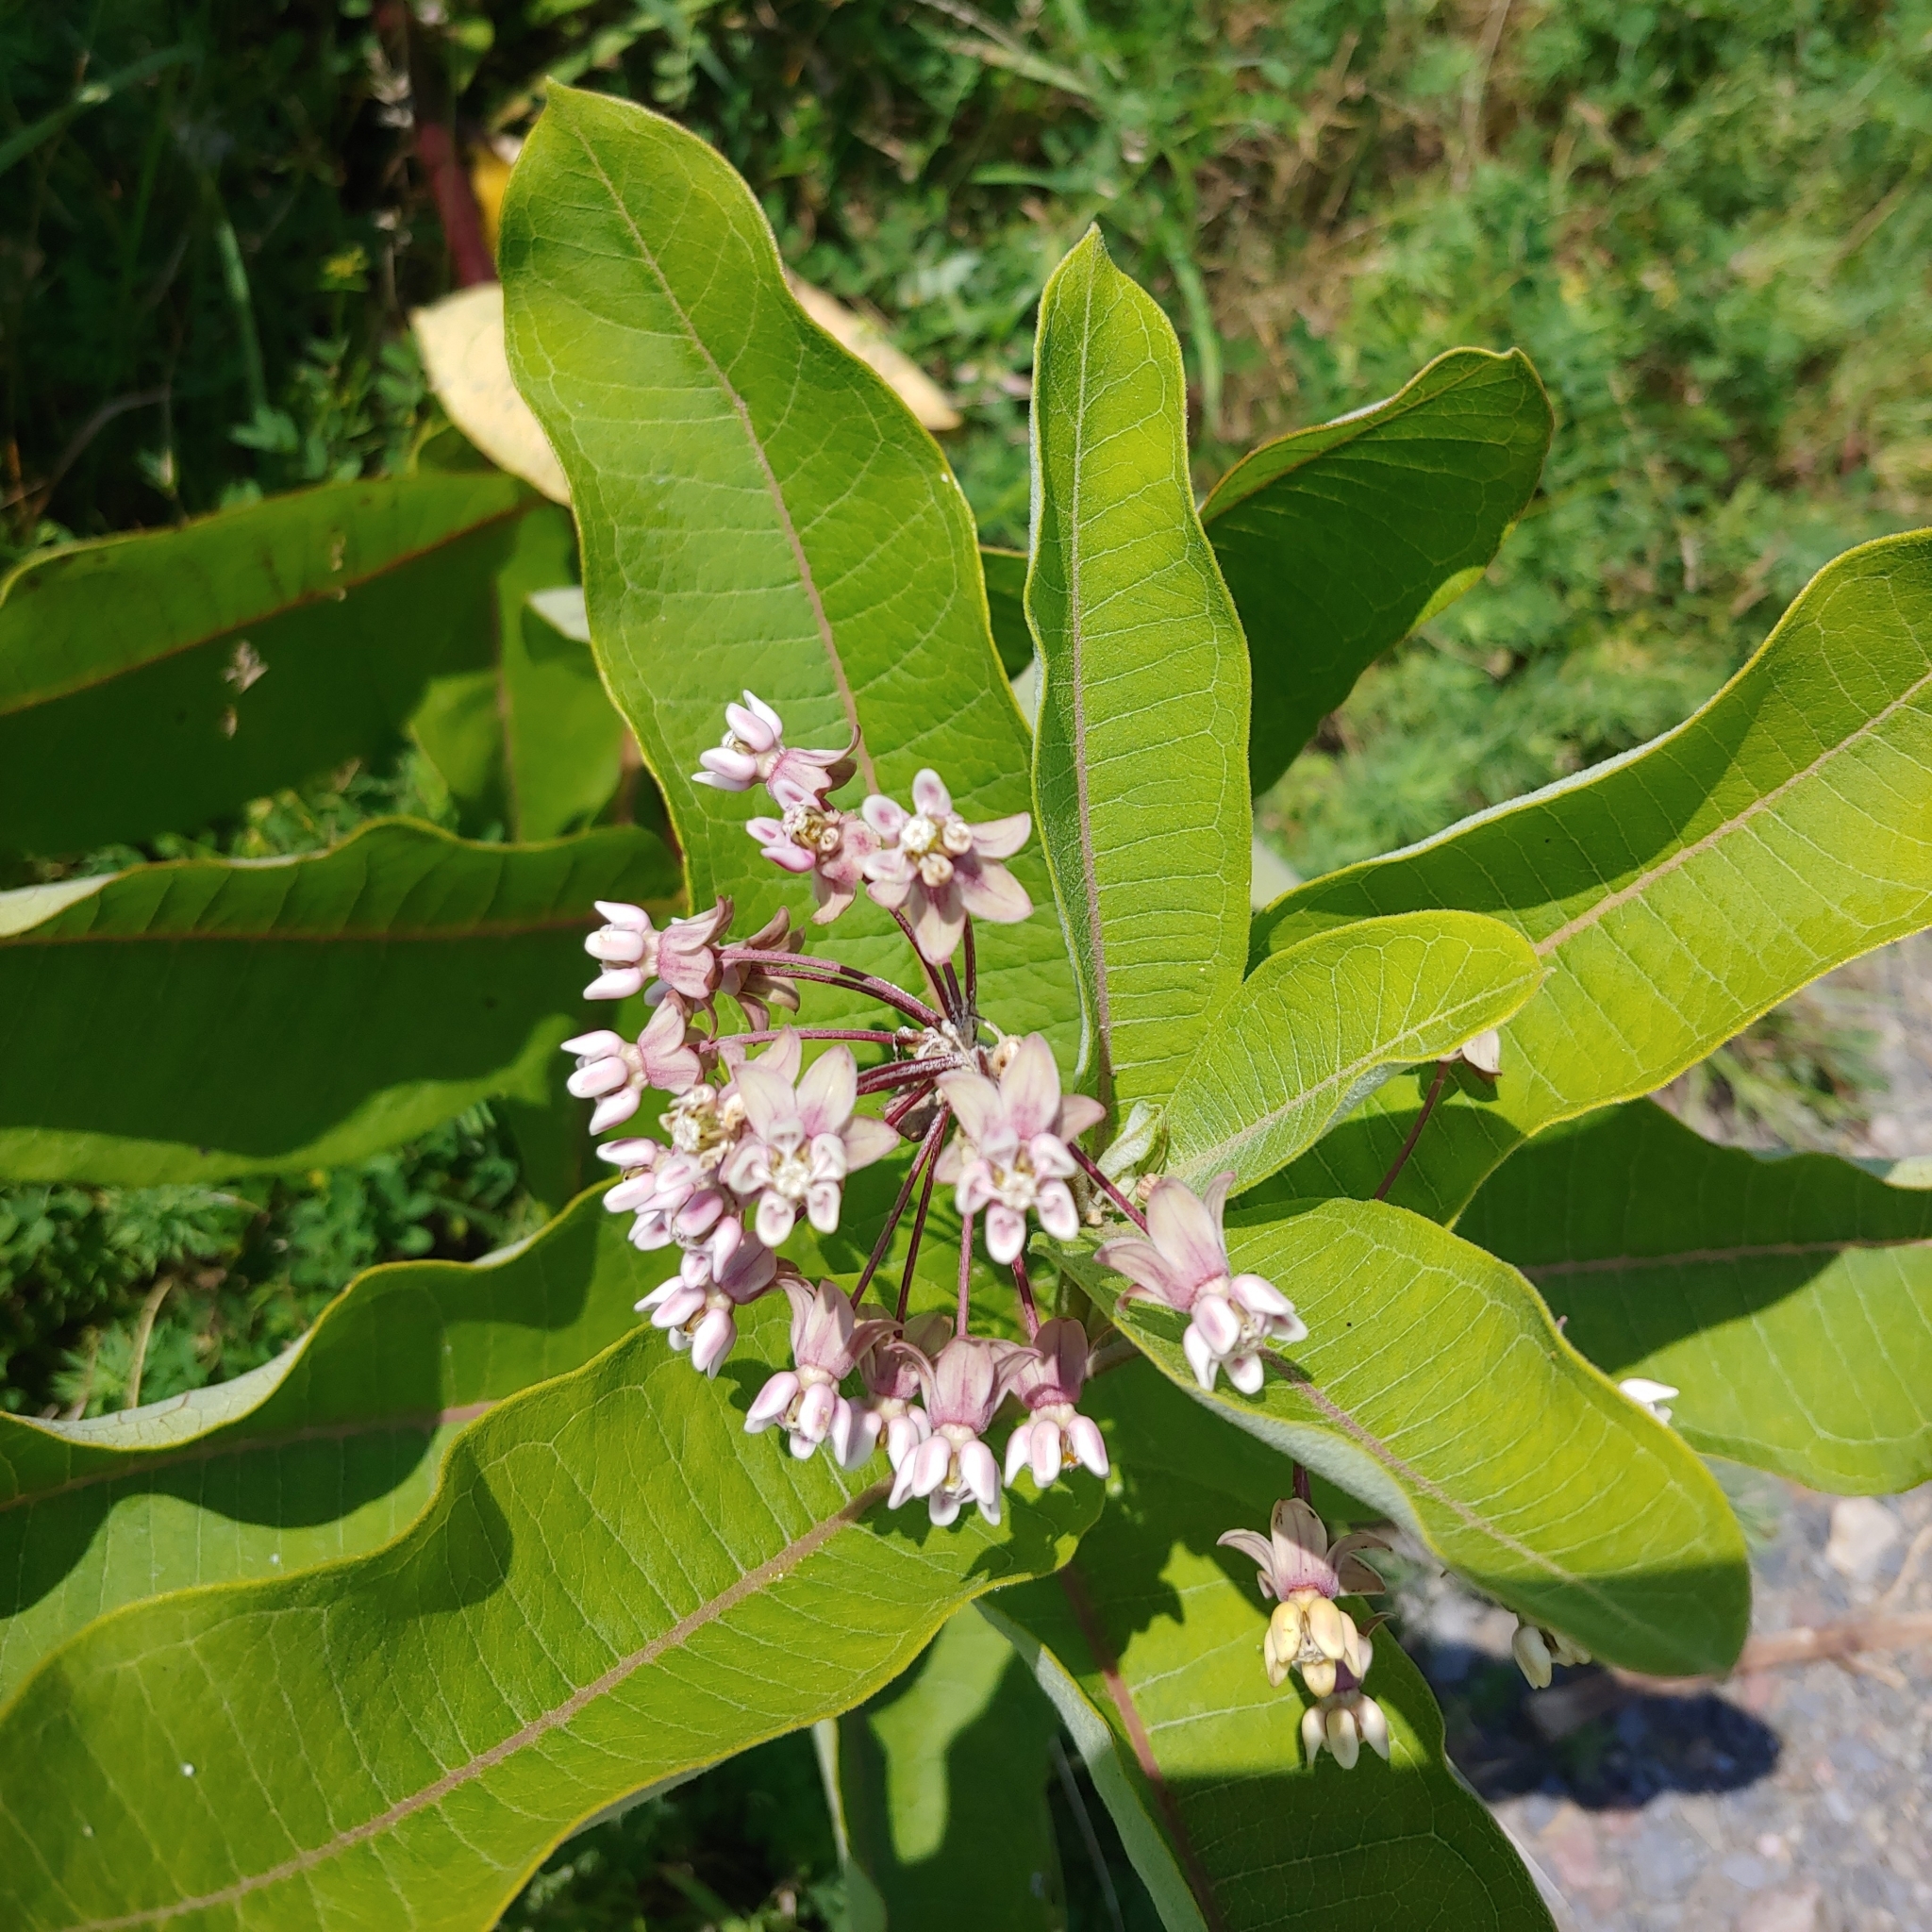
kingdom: Plantae
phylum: Tracheophyta
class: Magnoliopsida
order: Gentianales
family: Apocynaceae
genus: Asclepias
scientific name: Asclepias syriaca
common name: Common milkweed
